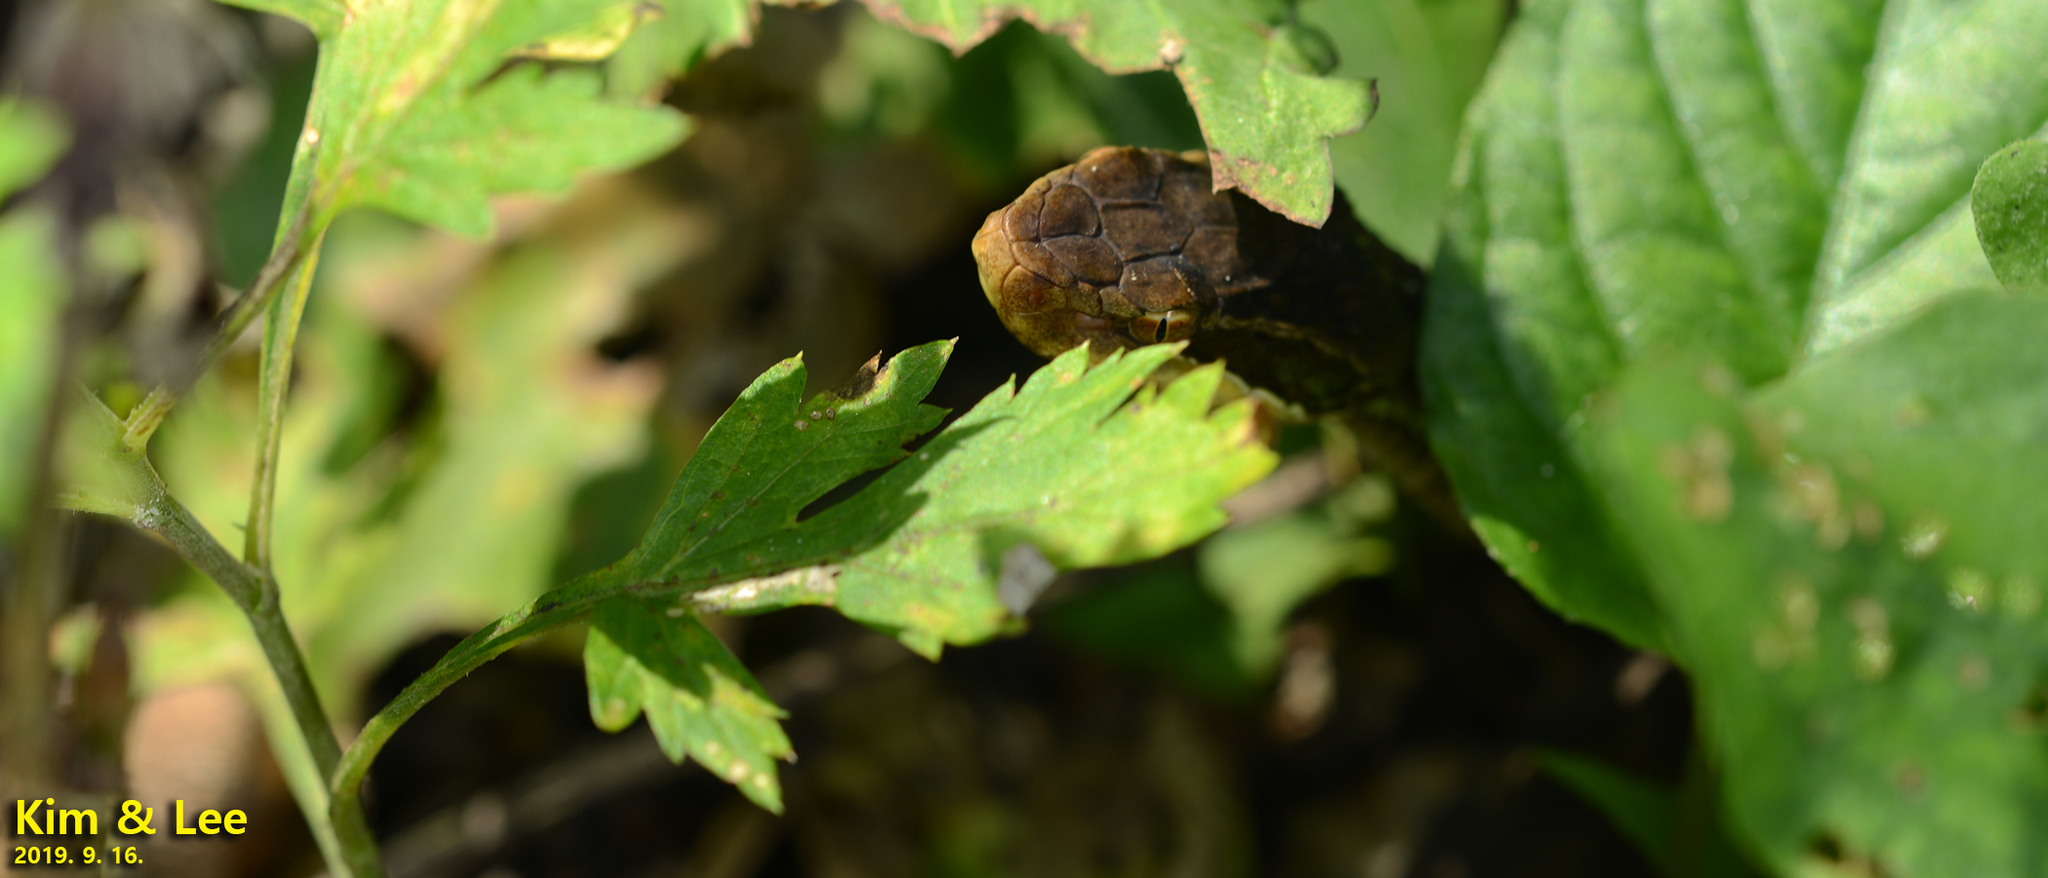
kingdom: Animalia
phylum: Chordata
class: Squamata
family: Viperidae
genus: Gloydius
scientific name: Gloydius ussuriensis
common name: Ussuri mamushi
